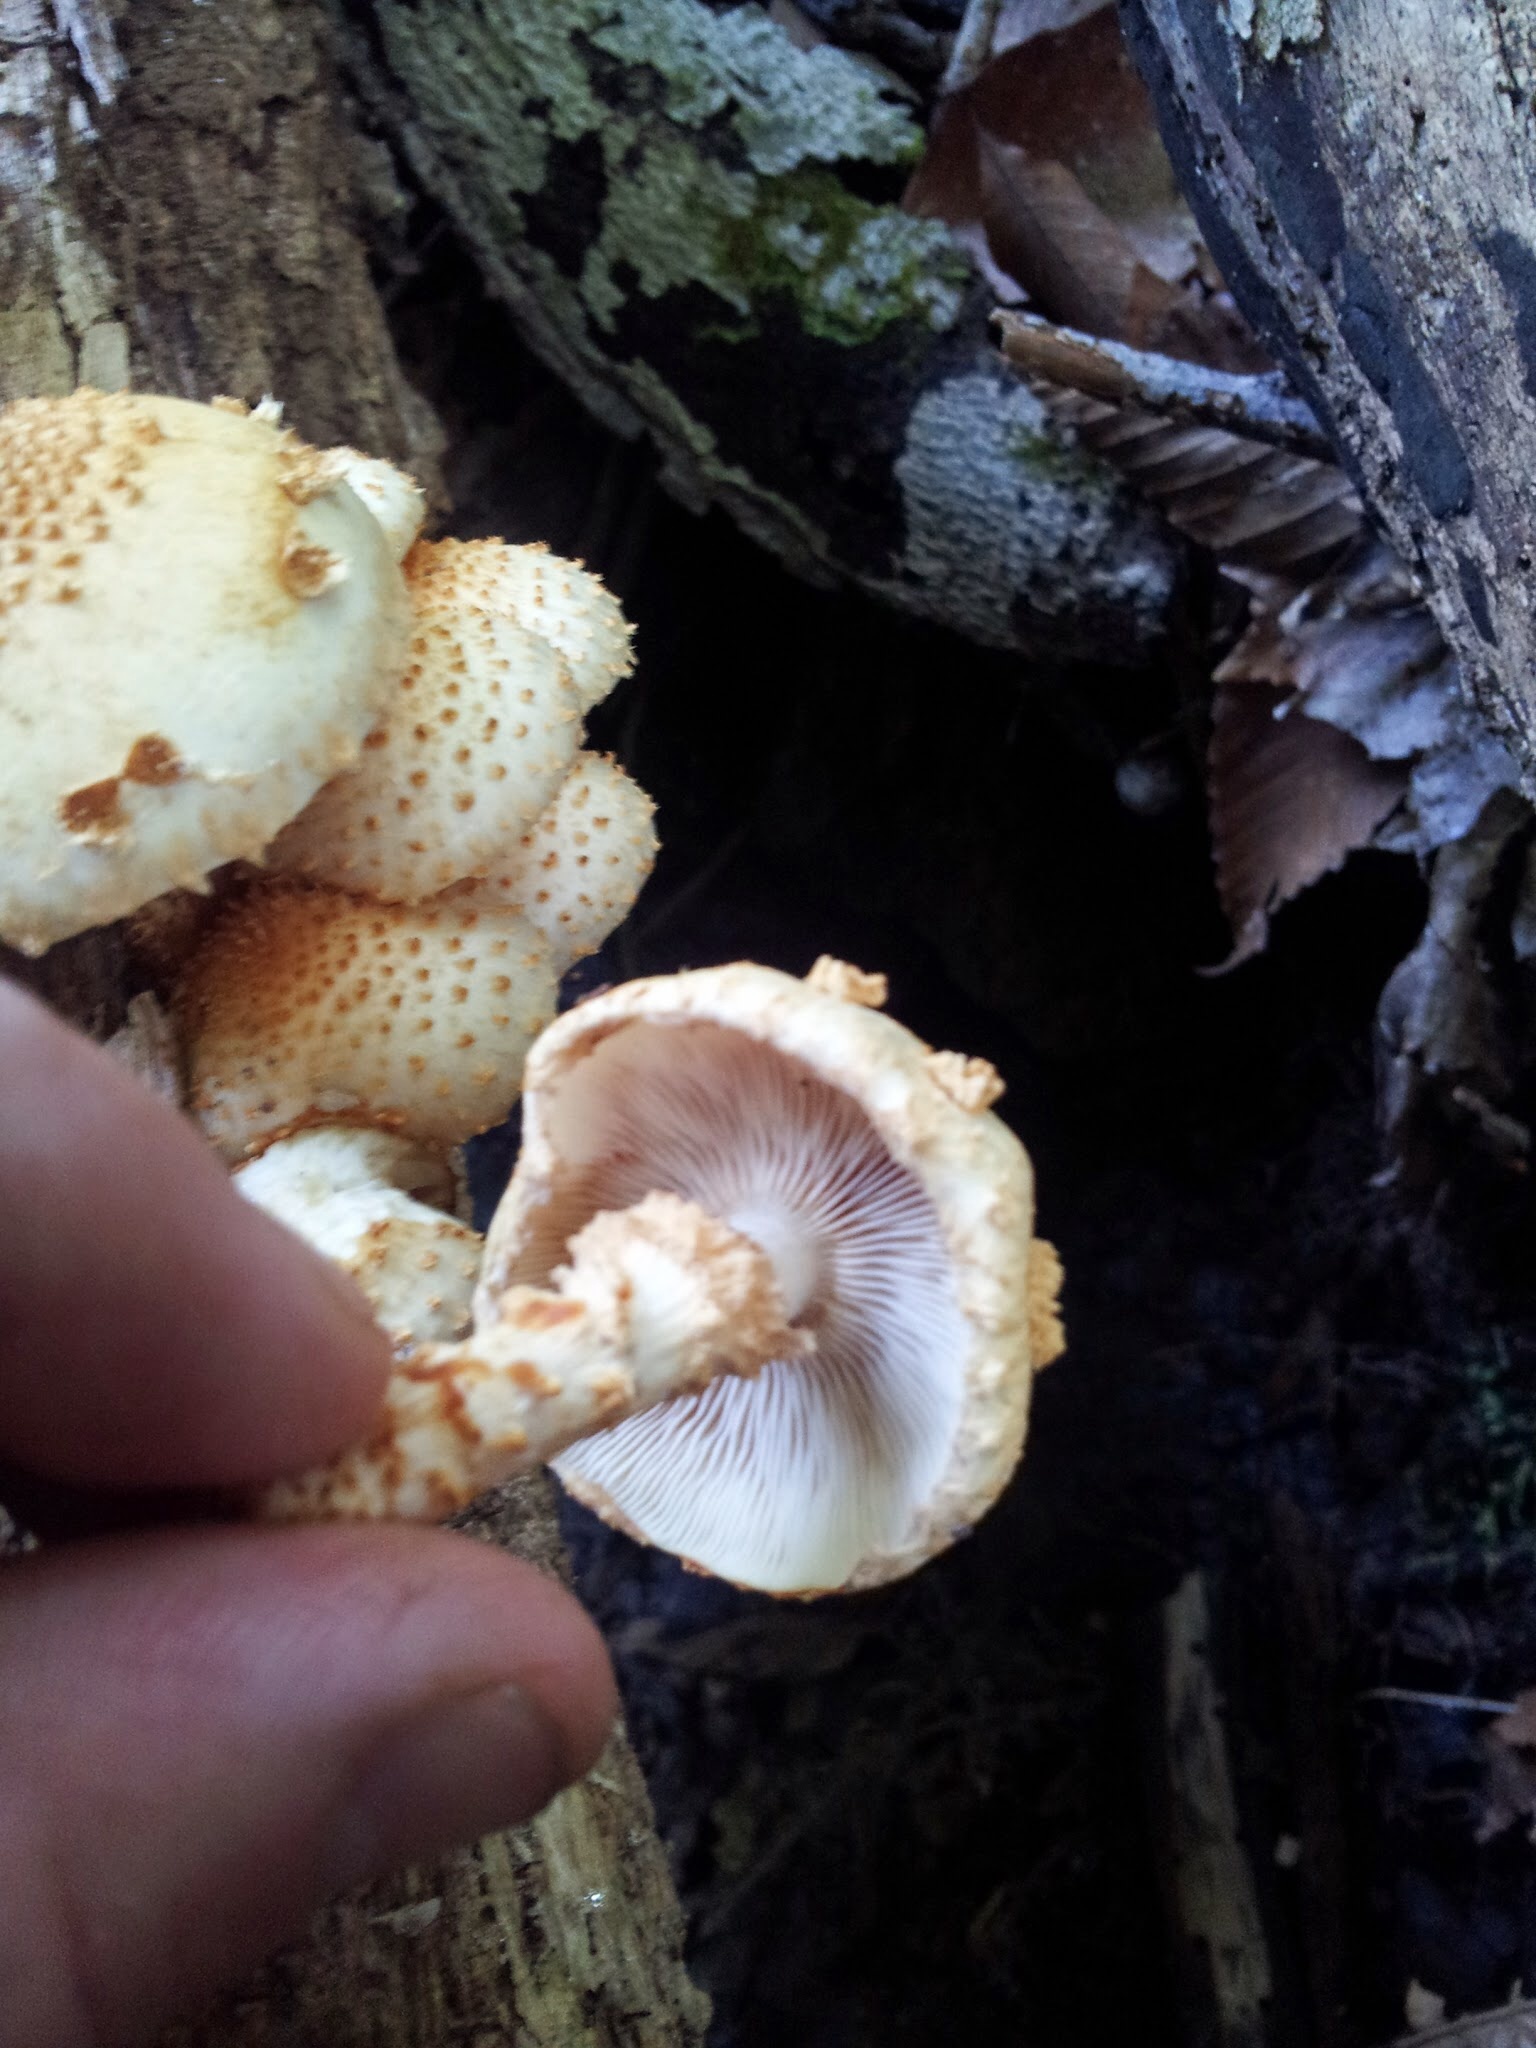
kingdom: Fungi
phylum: Basidiomycota
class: Agaricomycetes
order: Agaricales
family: Strophariaceae
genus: Pholiota
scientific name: Pholiota squarrosoides
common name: Sharp-scaly pholiota
